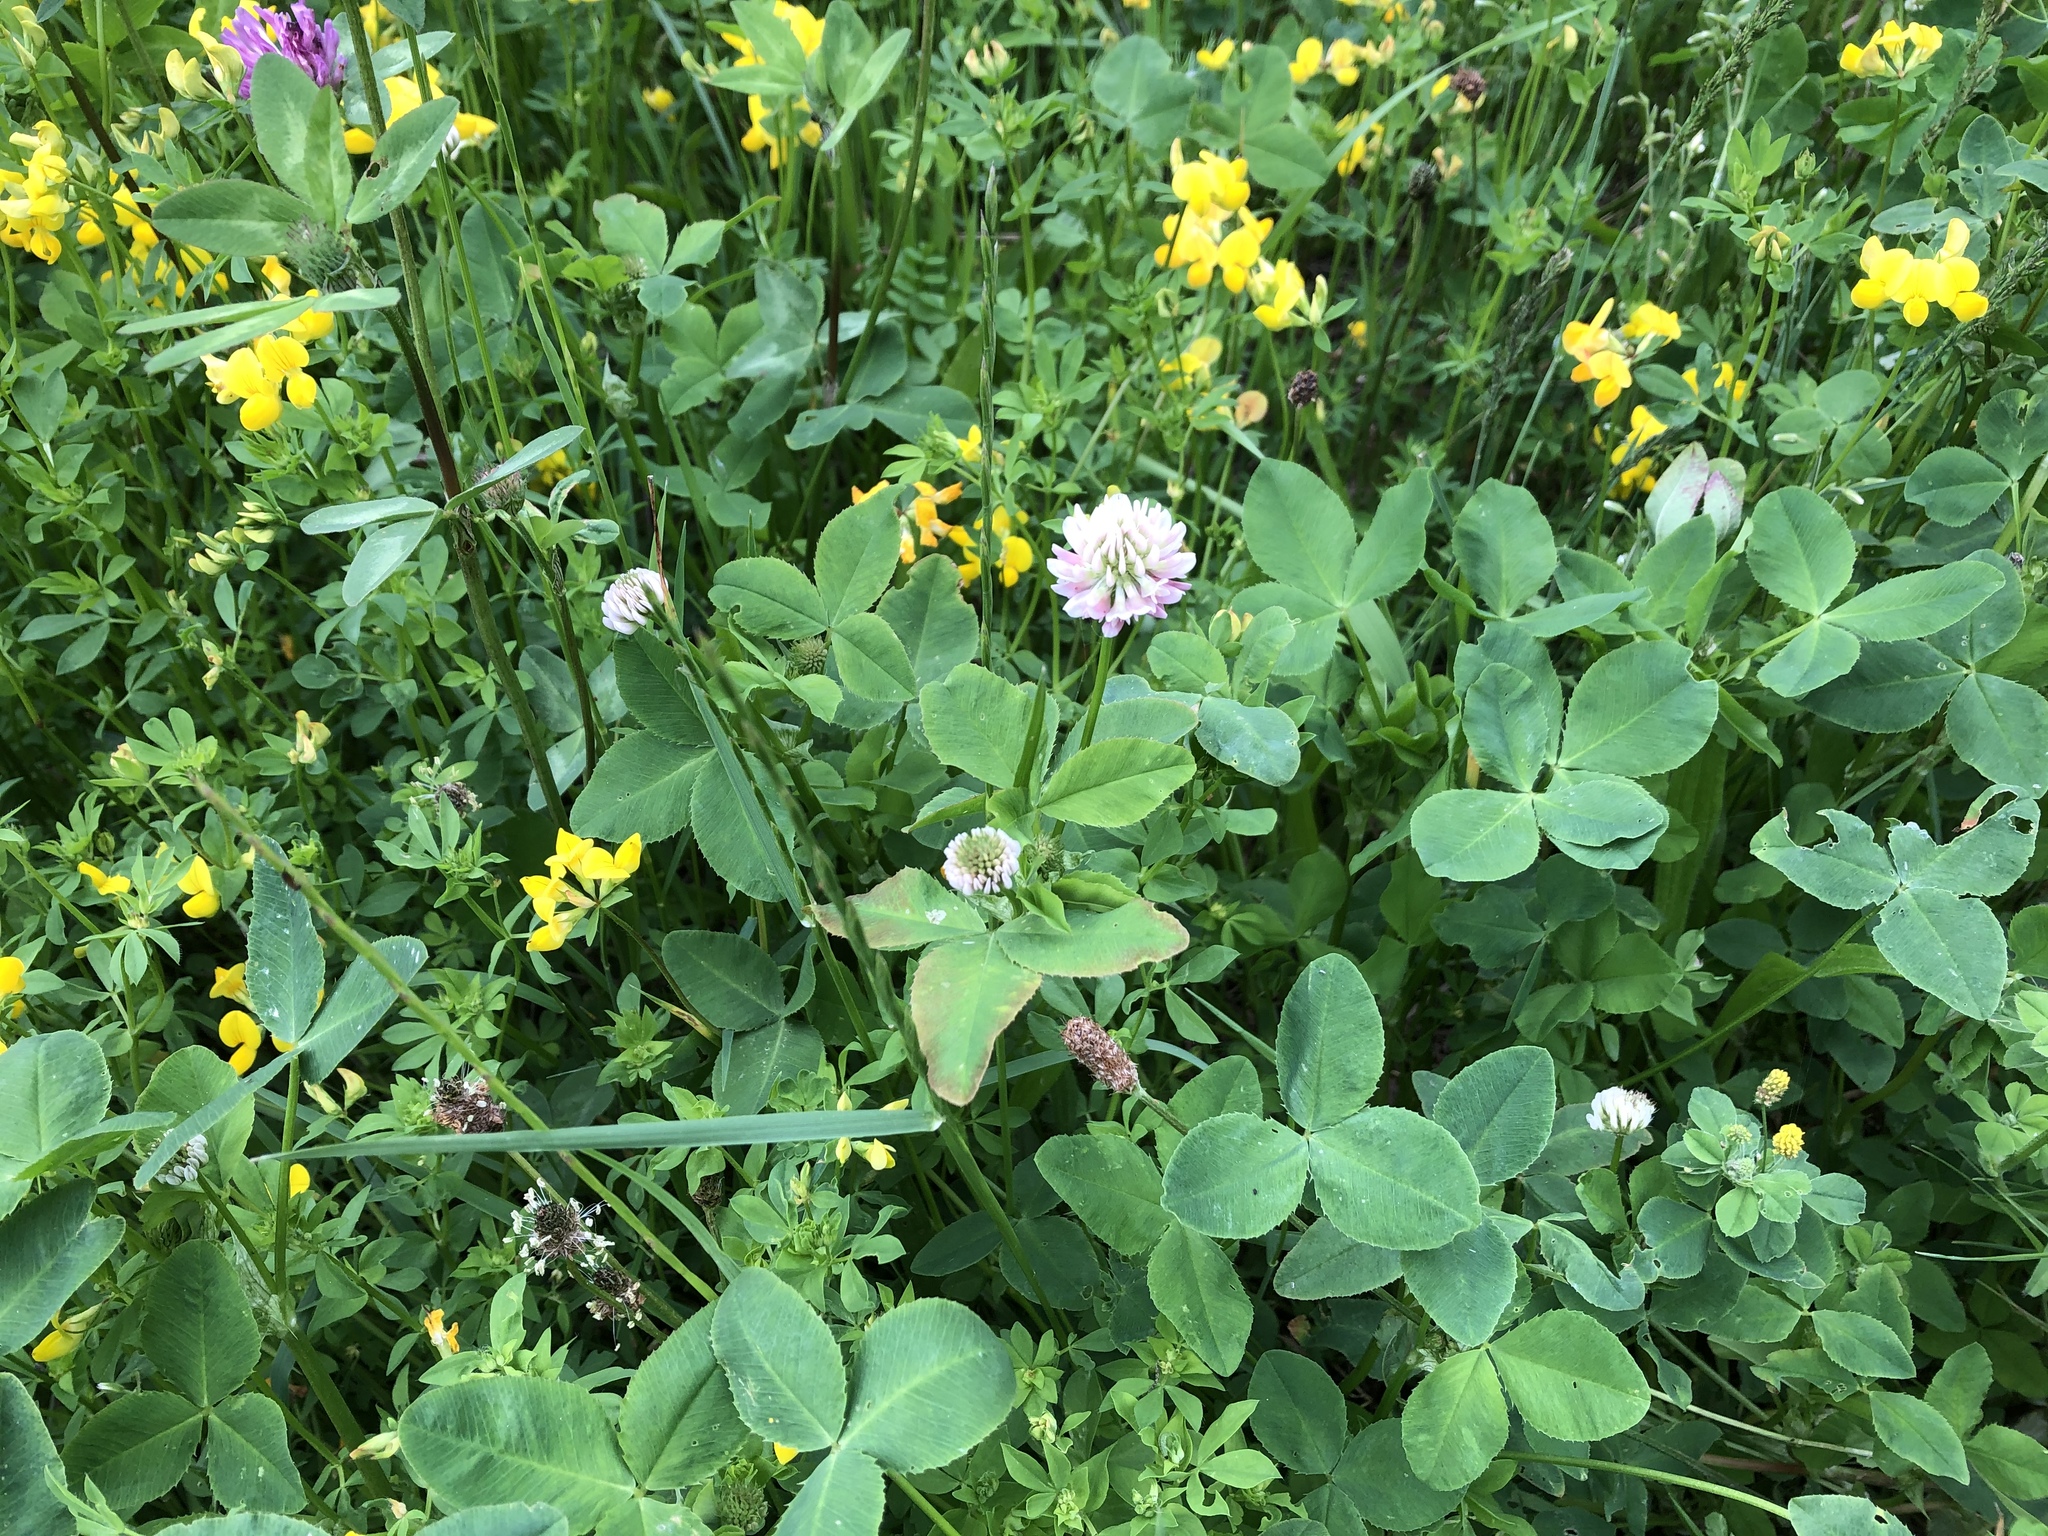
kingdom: Plantae
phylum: Tracheophyta
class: Magnoliopsida
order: Fabales
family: Fabaceae
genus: Trifolium
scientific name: Trifolium hybridum
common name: Alsike clover
